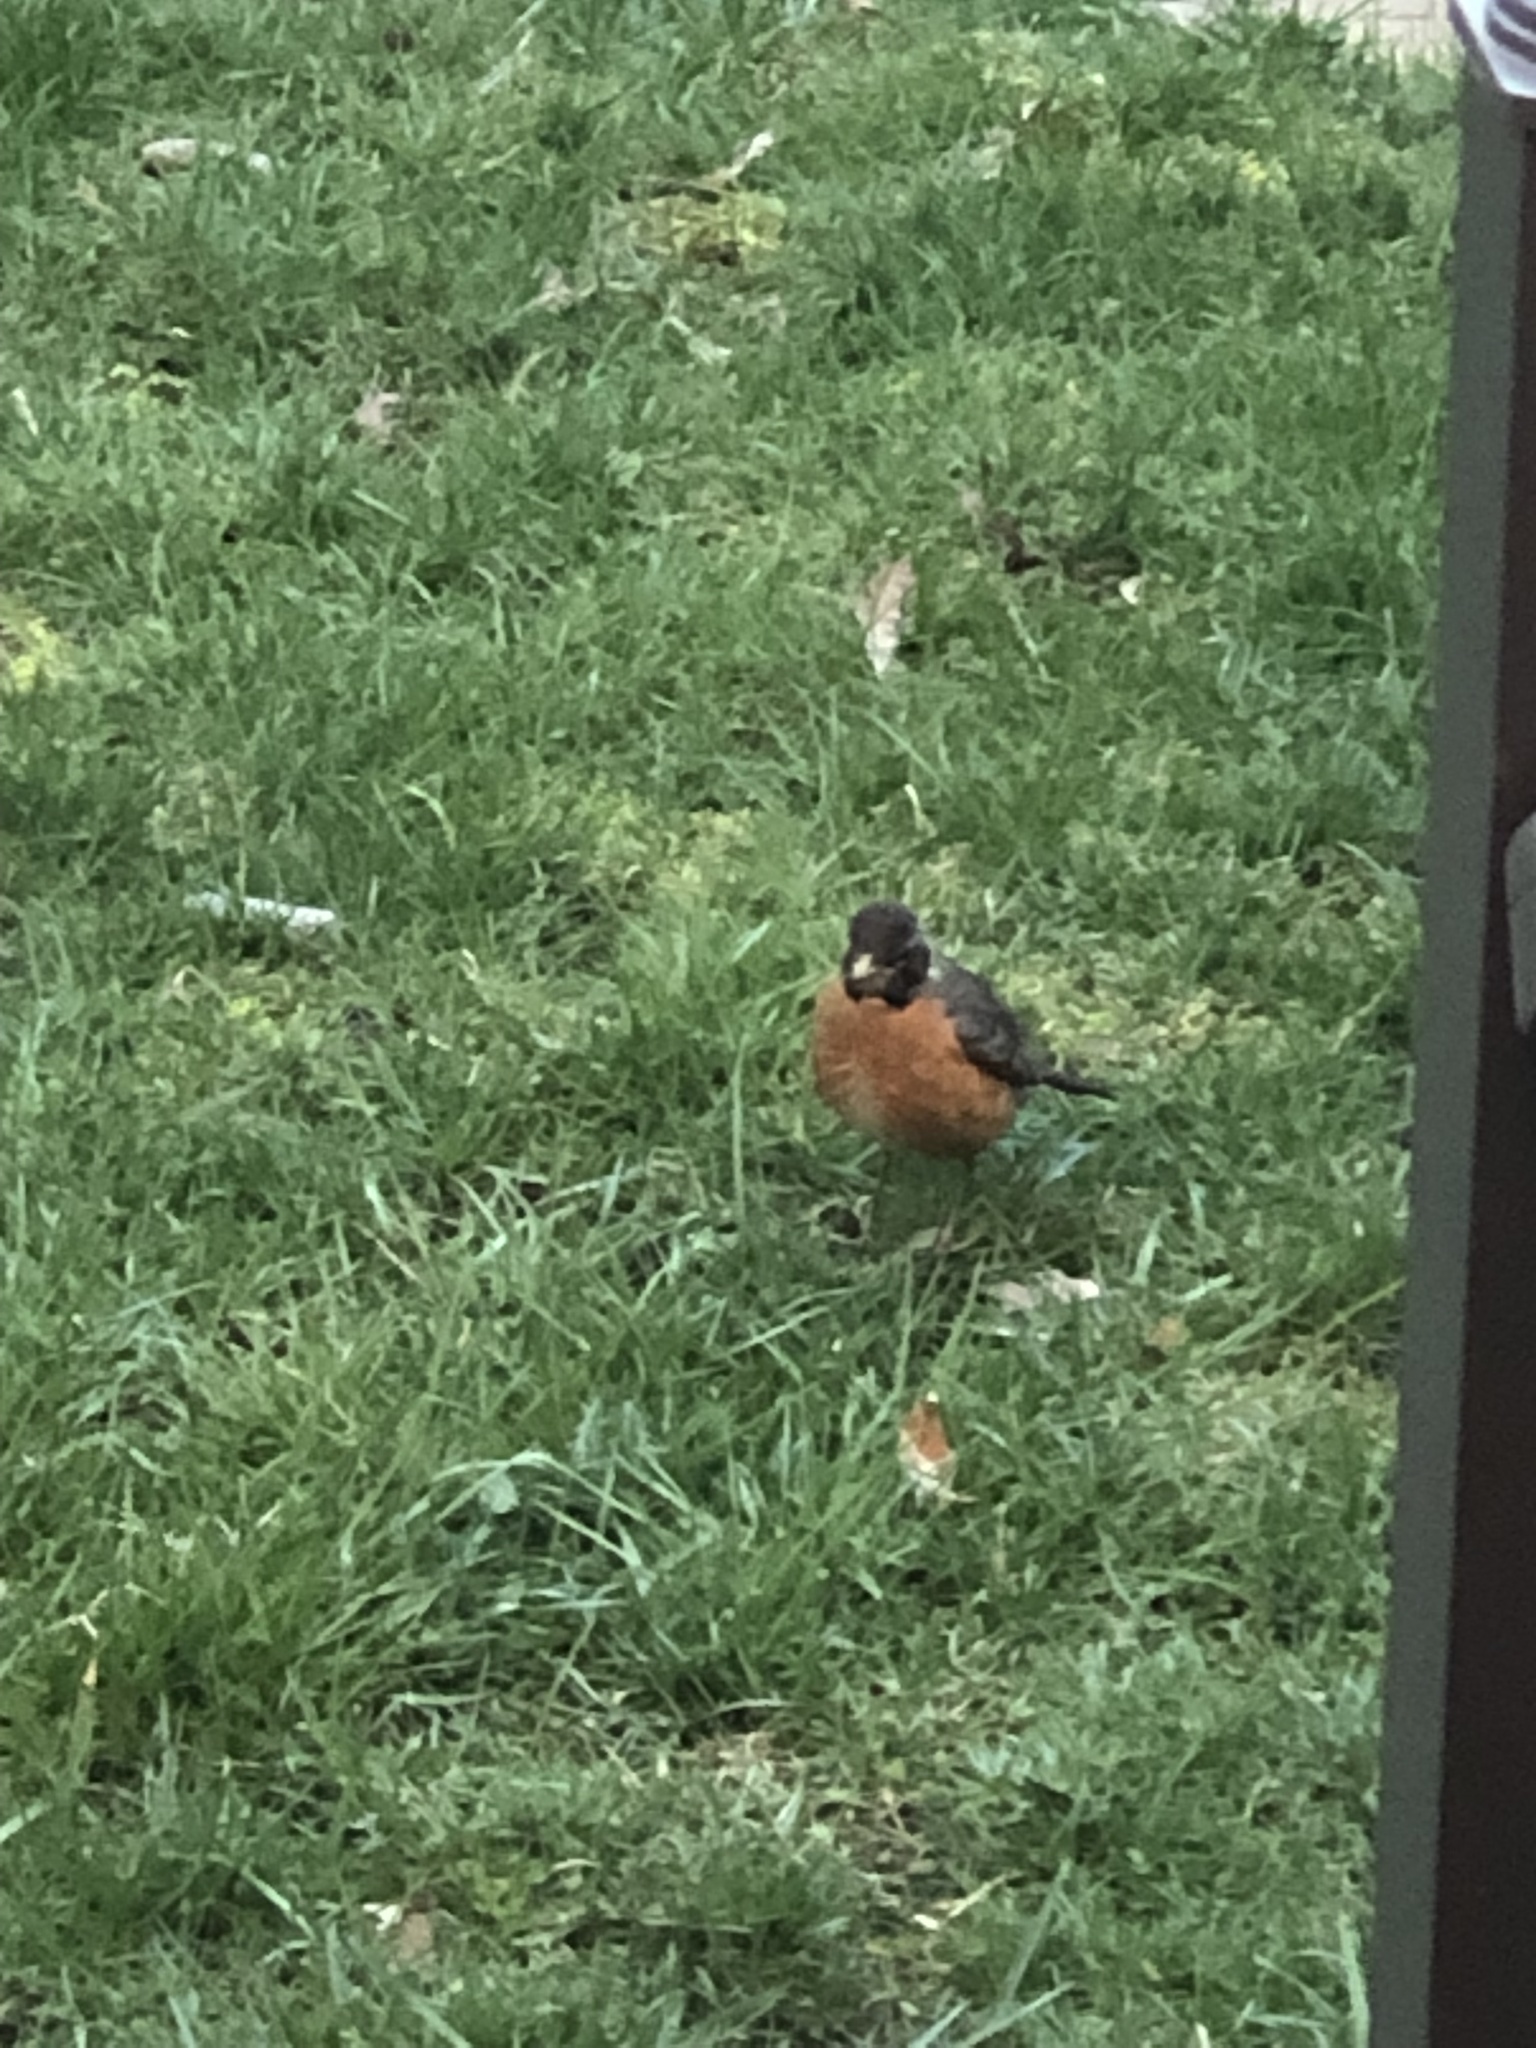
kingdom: Animalia
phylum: Chordata
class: Aves
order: Passeriformes
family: Turdidae
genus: Turdus
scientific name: Turdus migratorius
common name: American robin
